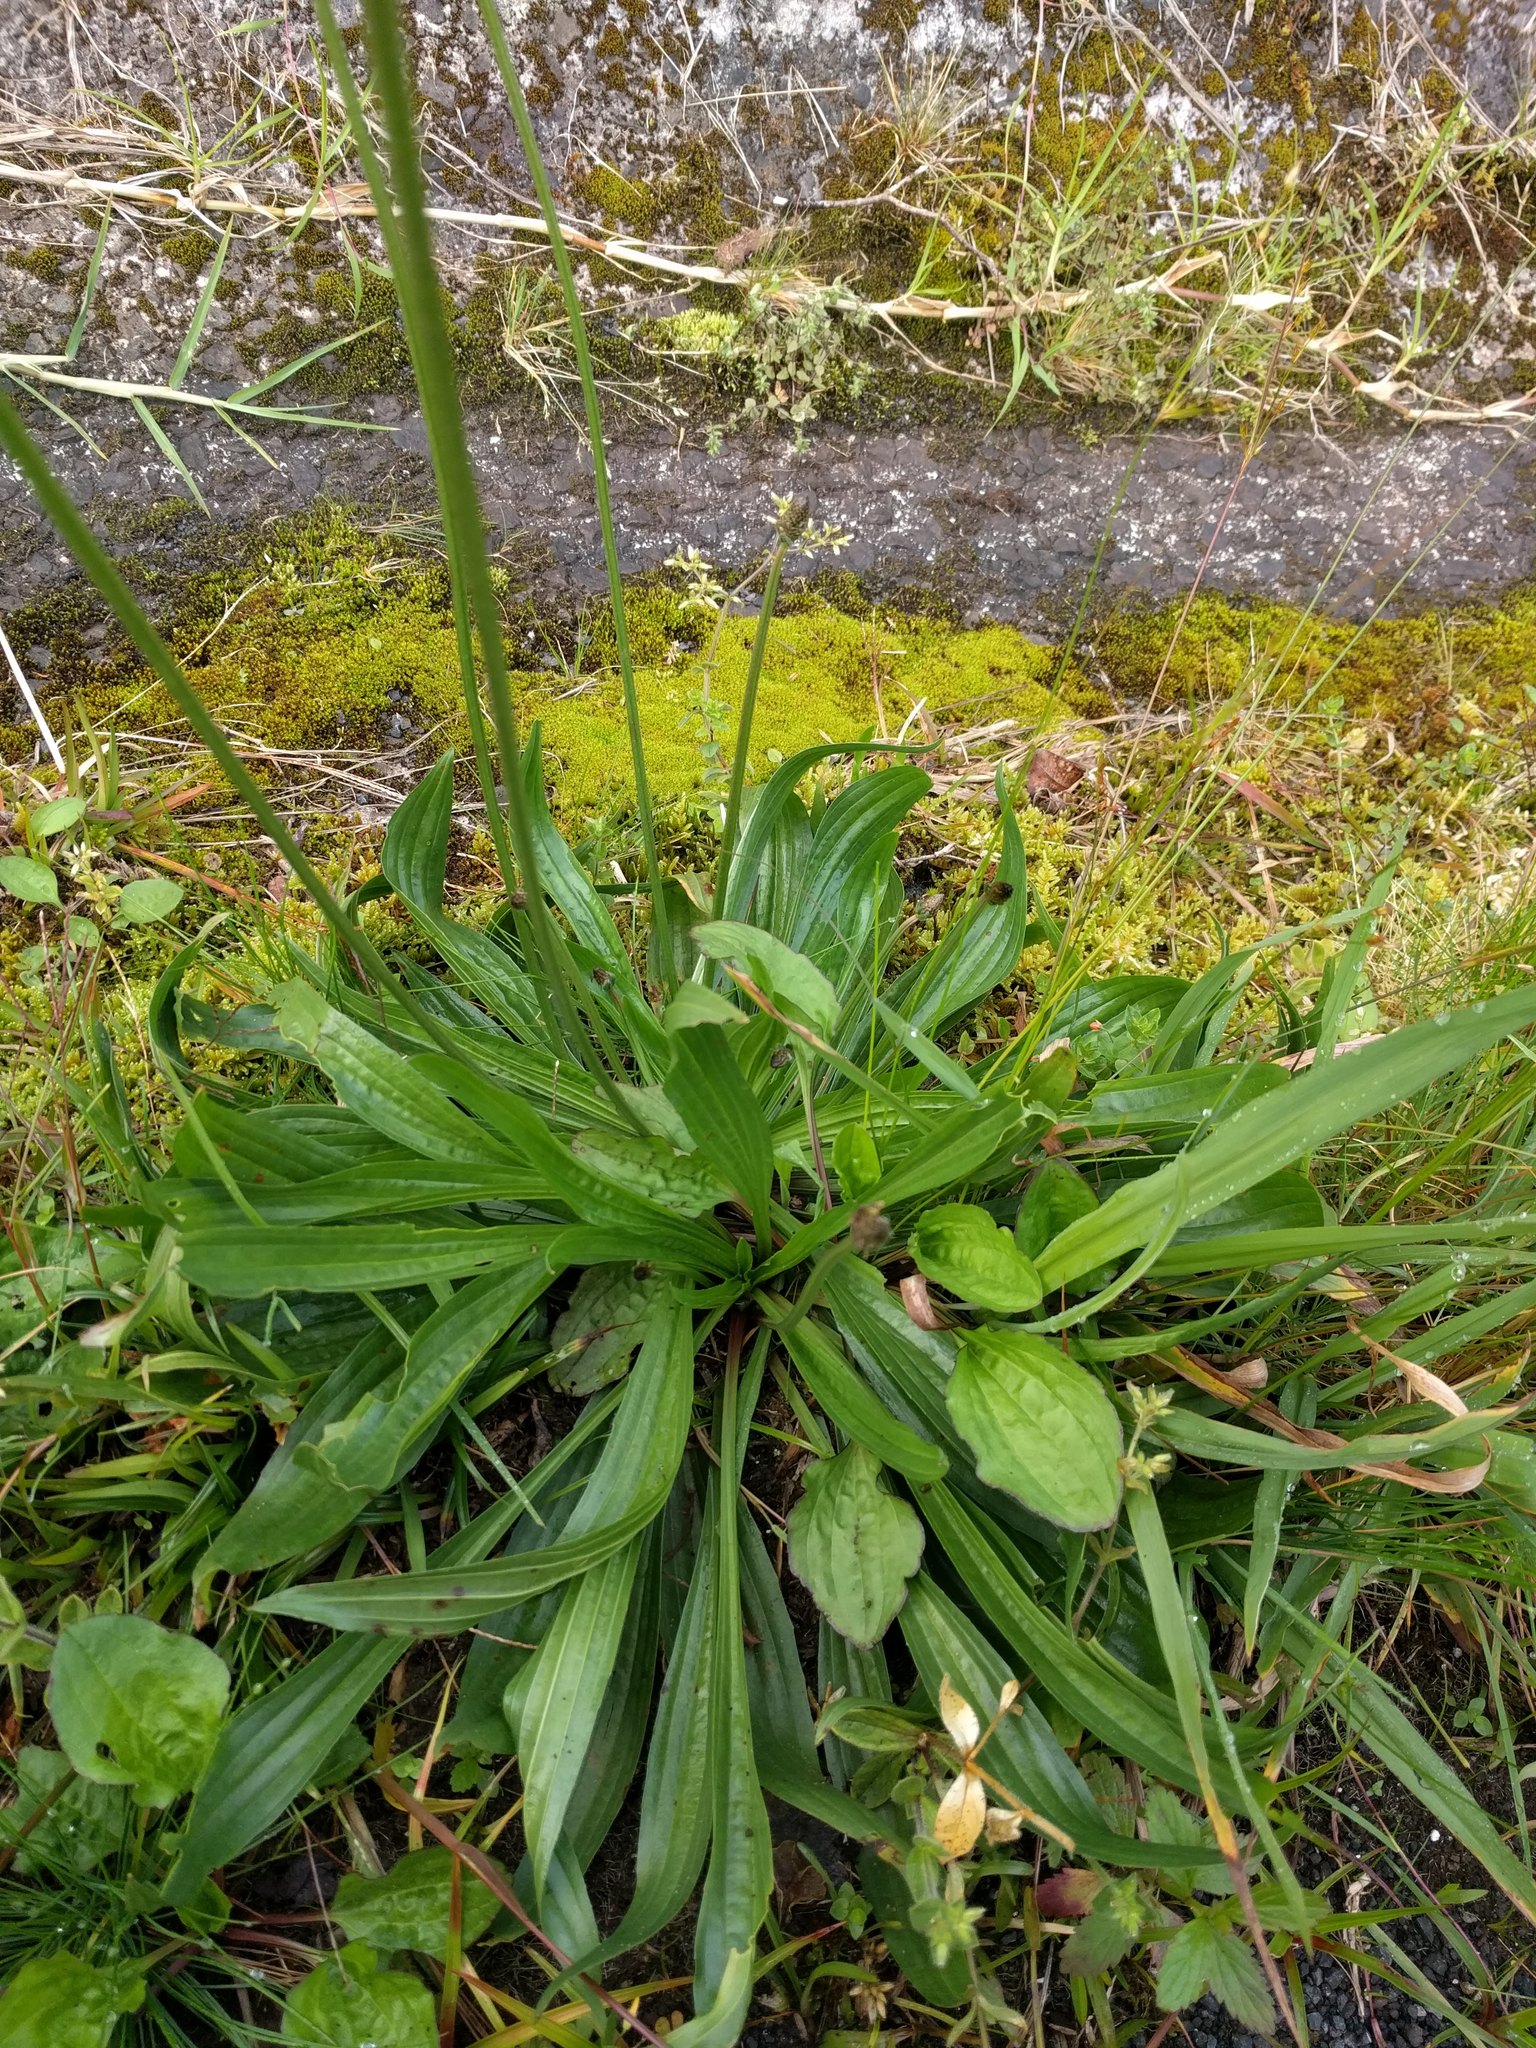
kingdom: Plantae
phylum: Tracheophyta
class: Magnoliopsida
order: Lamiales
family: Plantaginaceae
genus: Plantago
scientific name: Plantago lanceolata
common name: Ribwort plantain
